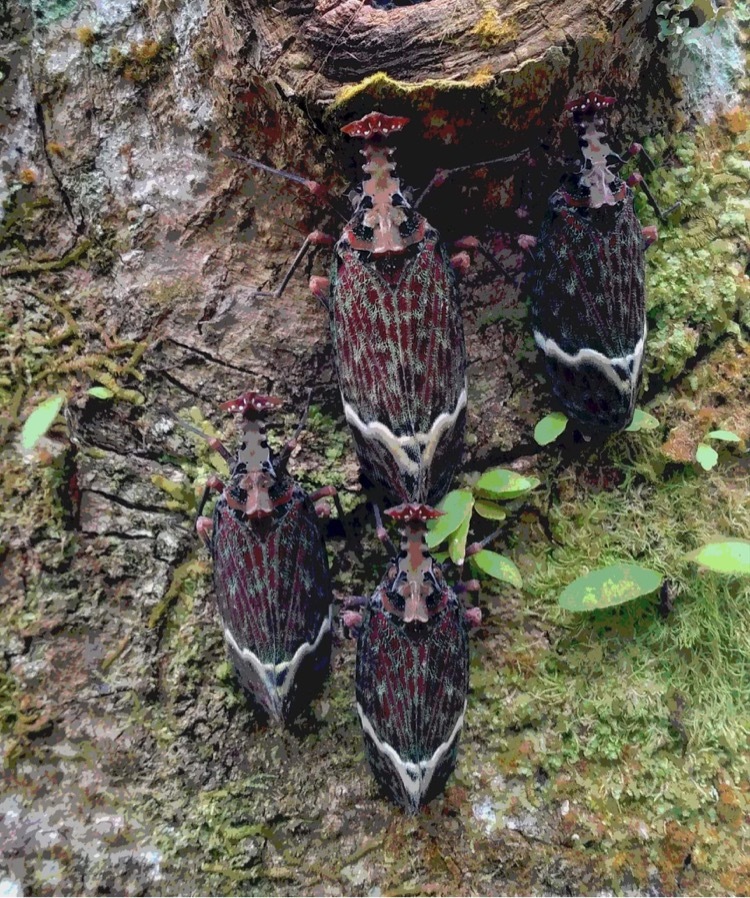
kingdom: Animalia
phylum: Arthropoda
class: Insecta
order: Hemiptera
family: Fulgoridae
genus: Phrictus
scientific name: Phrictus quinquepartitus
